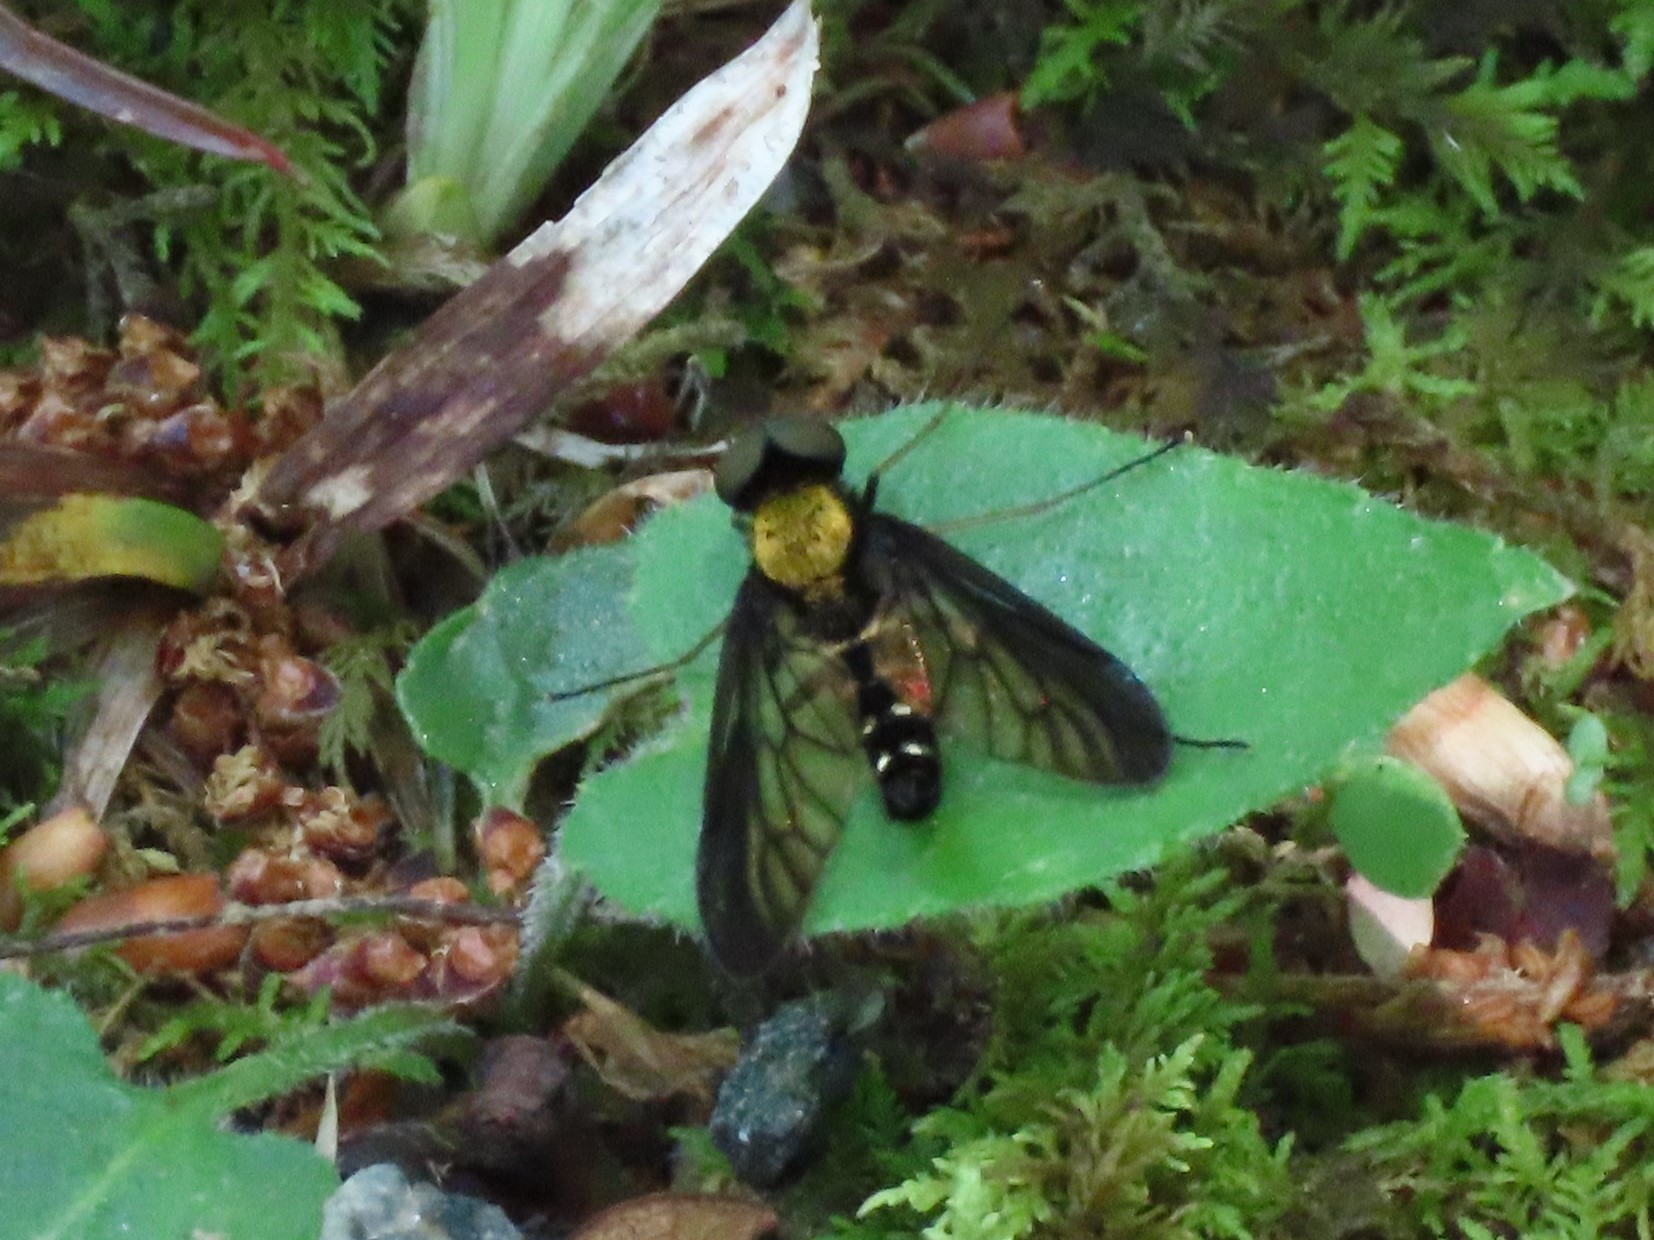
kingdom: Animalia
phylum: Arthropoda
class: Insecta
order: Diptera
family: Rhagionidae
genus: Chrysopilus
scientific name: Chrysopilus thoracicus
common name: Golden-backed snipe fly
